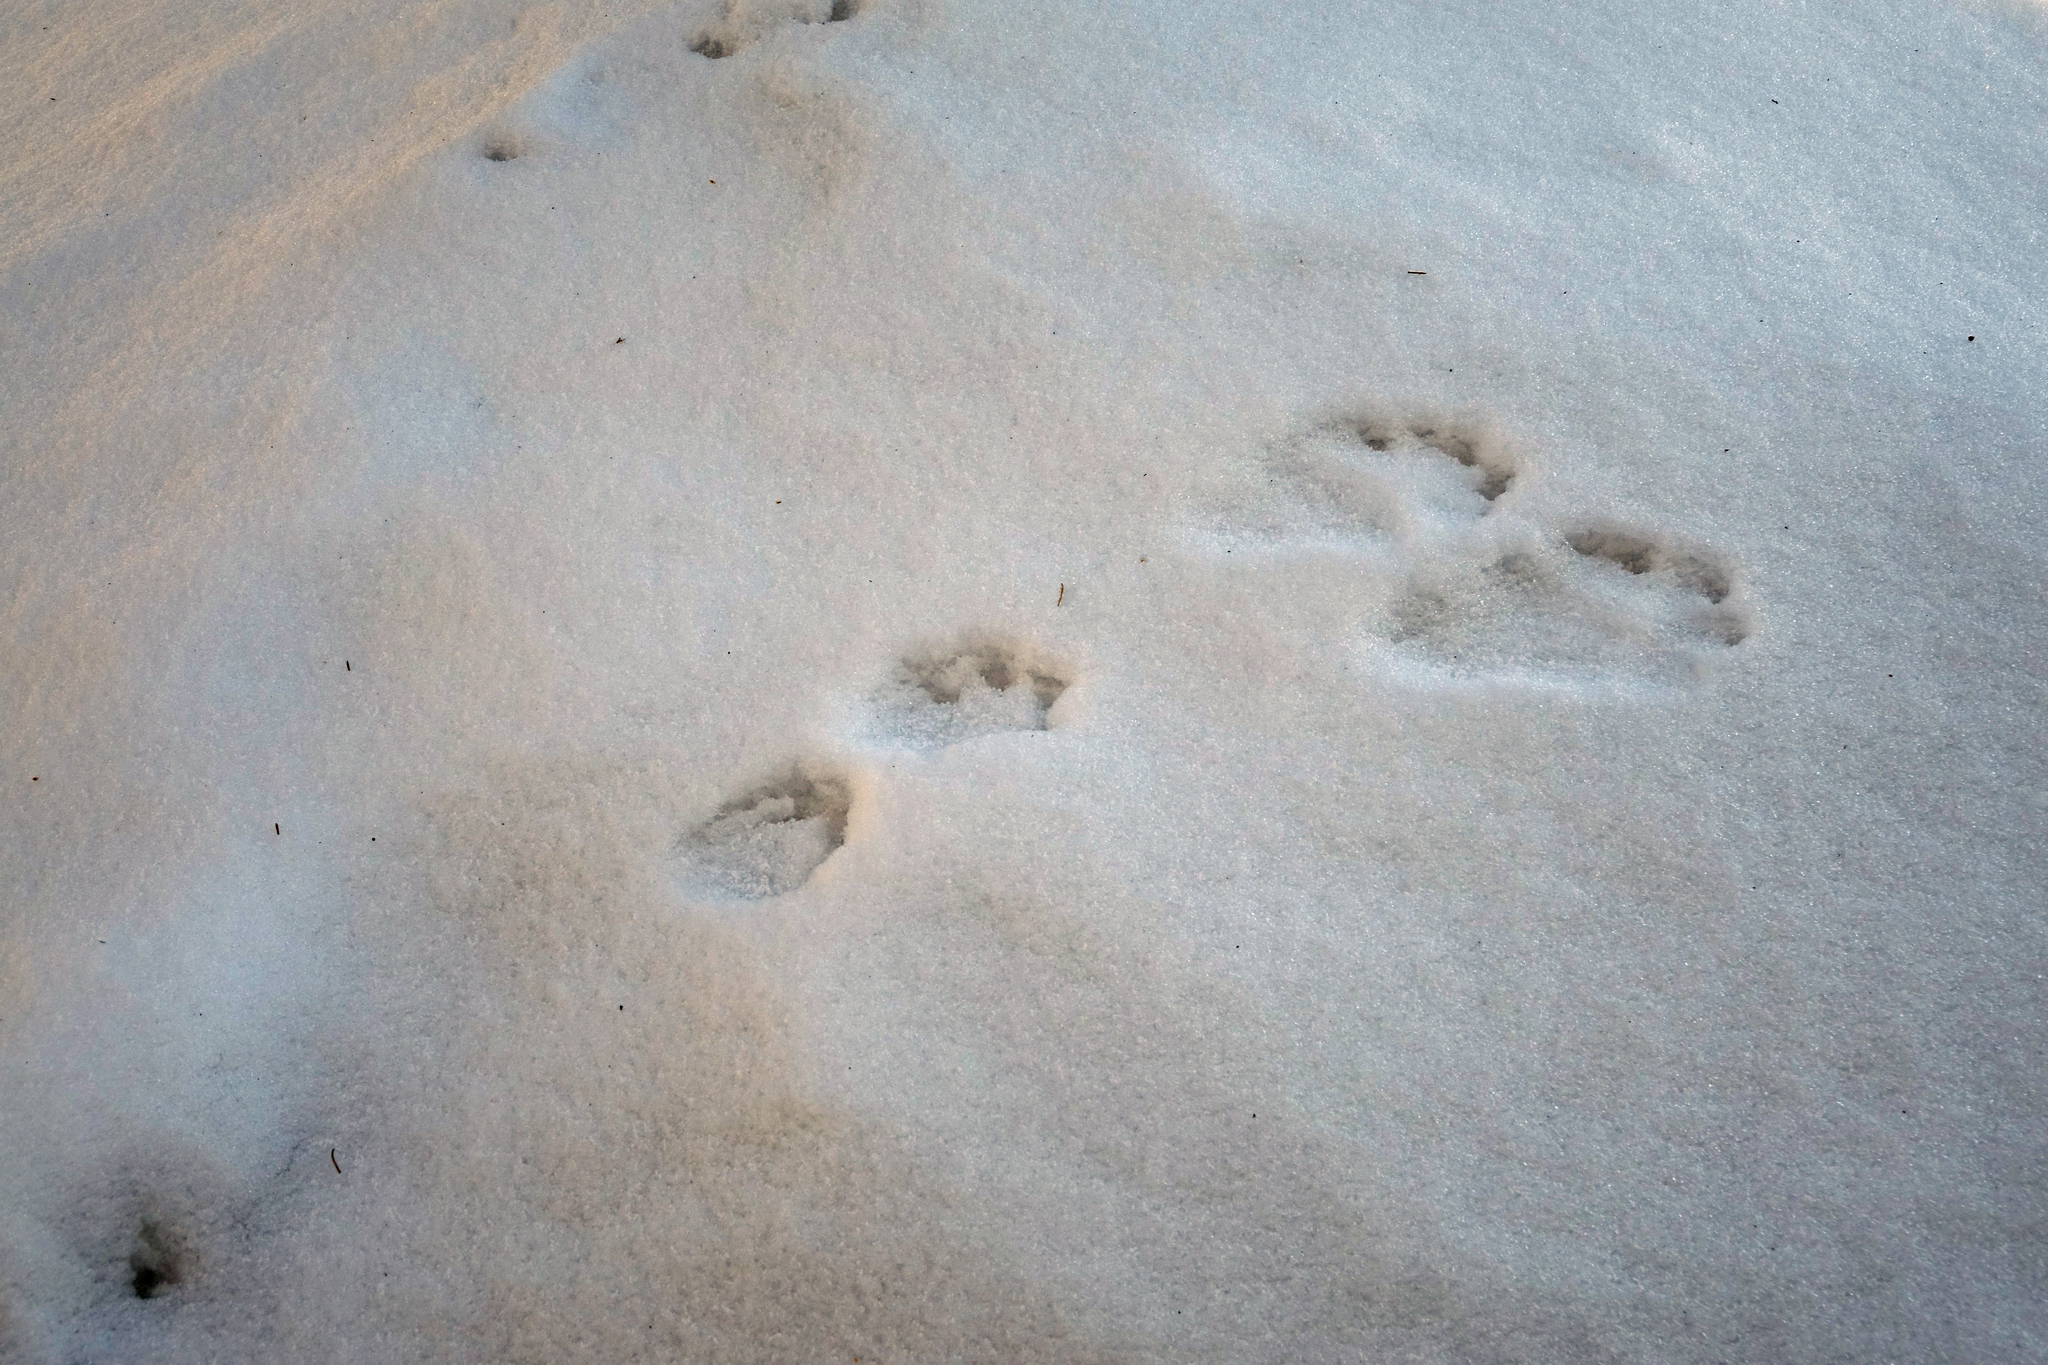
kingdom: Animalia
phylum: Chordata
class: Mammalia
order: Lagomorpha
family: Leporidae
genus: Lepus
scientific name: Lepus timidus
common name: Mountain hare
